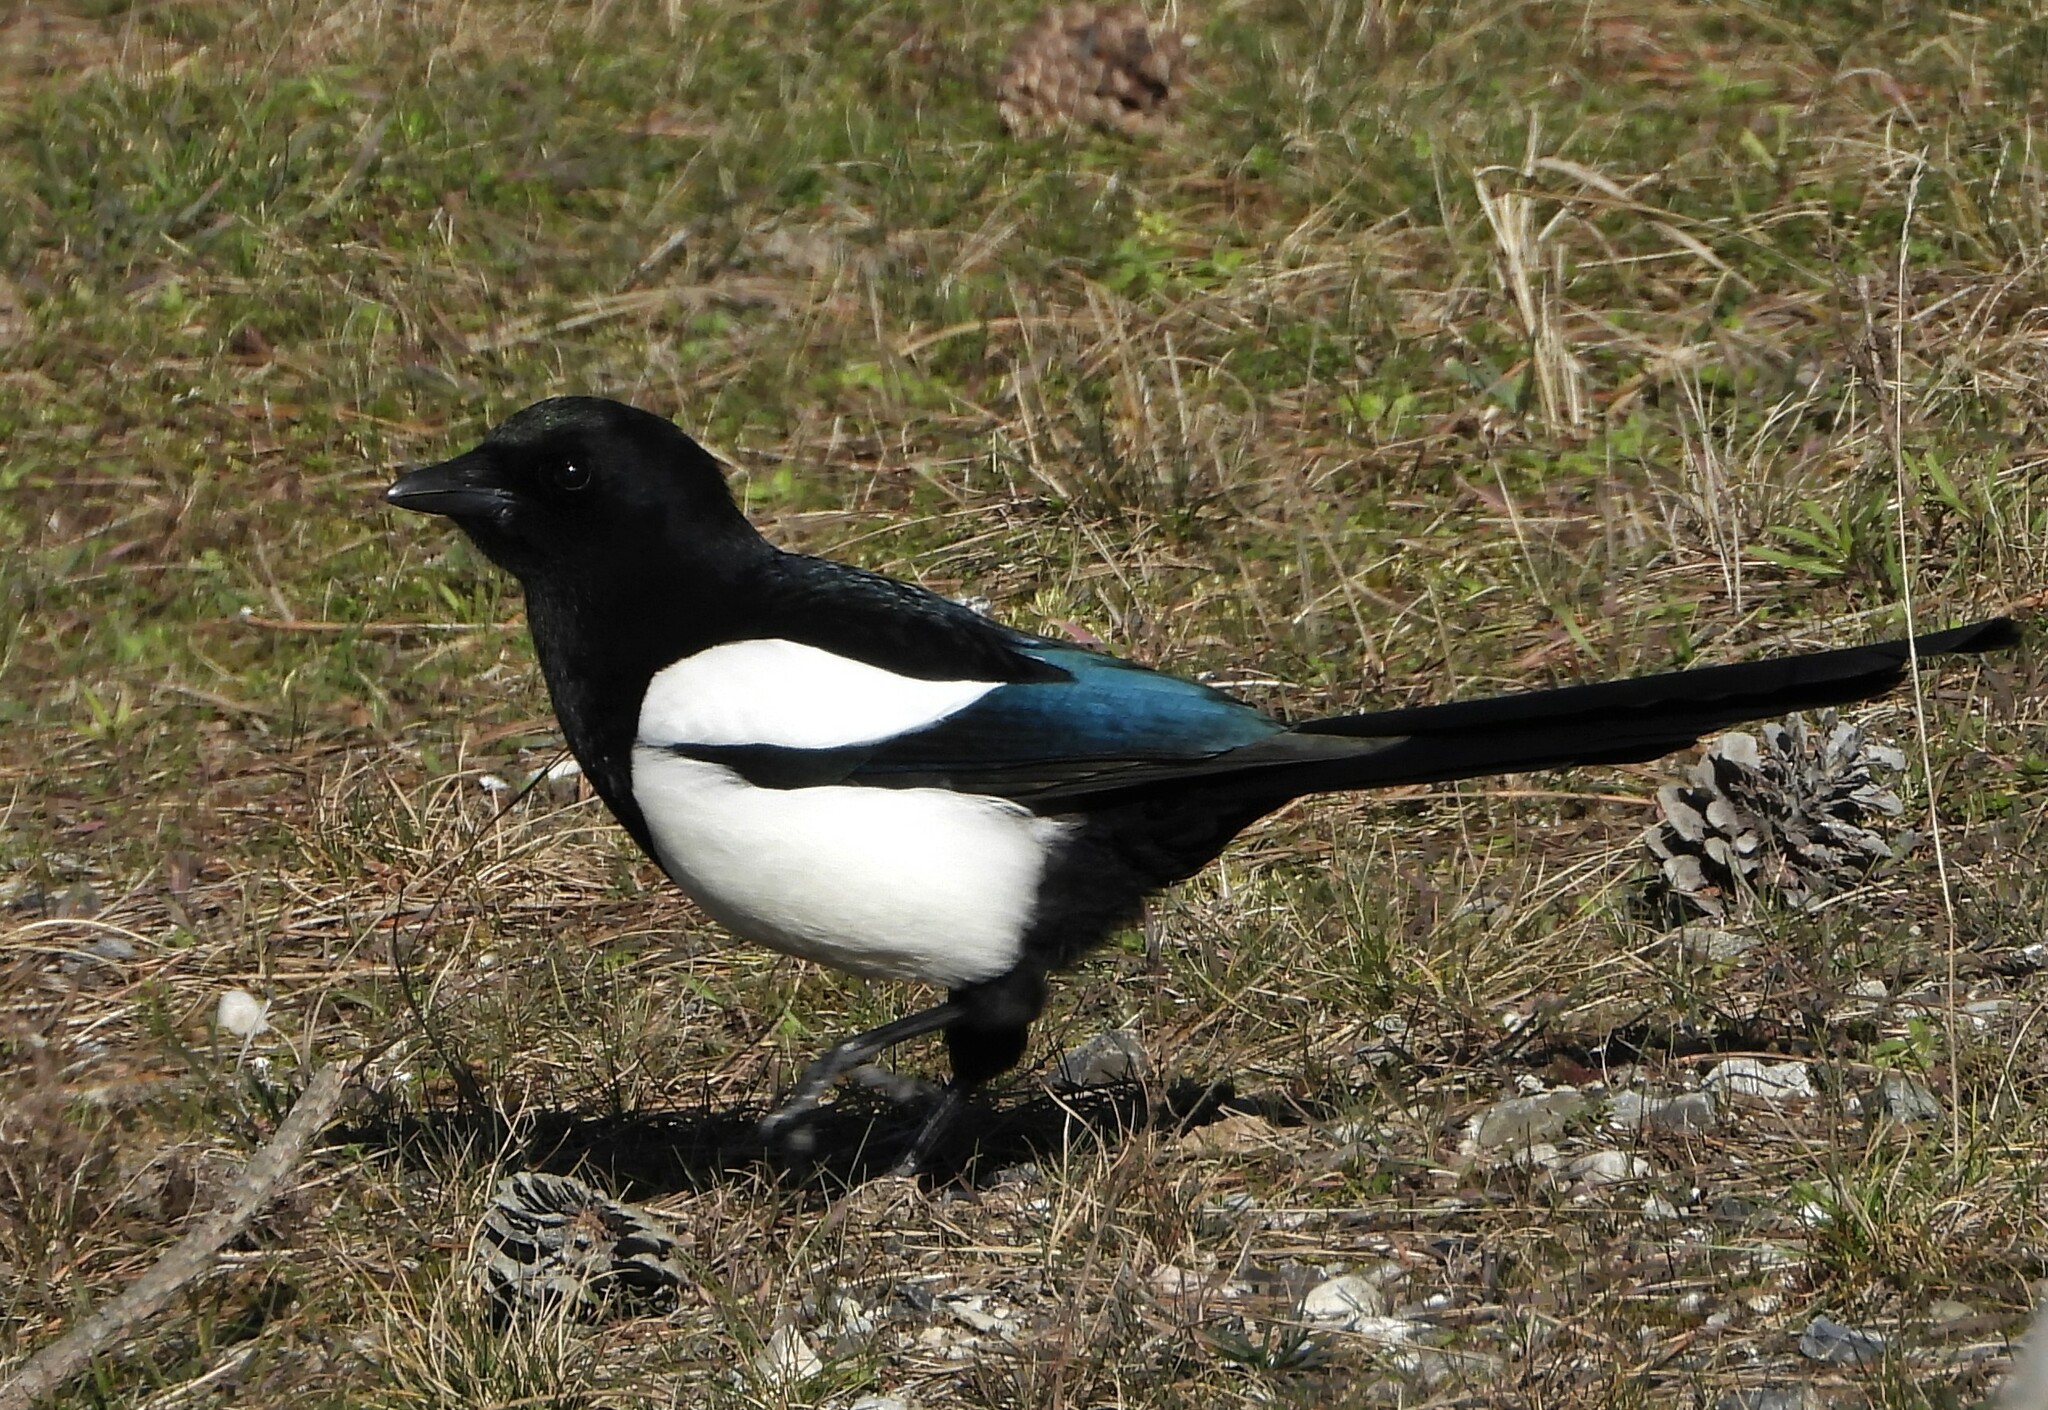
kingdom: Animalia
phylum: Chordata
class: Aves
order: Passeriformes
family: Corvidae
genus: Pica
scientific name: Pica pica
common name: Eurasian magpie
